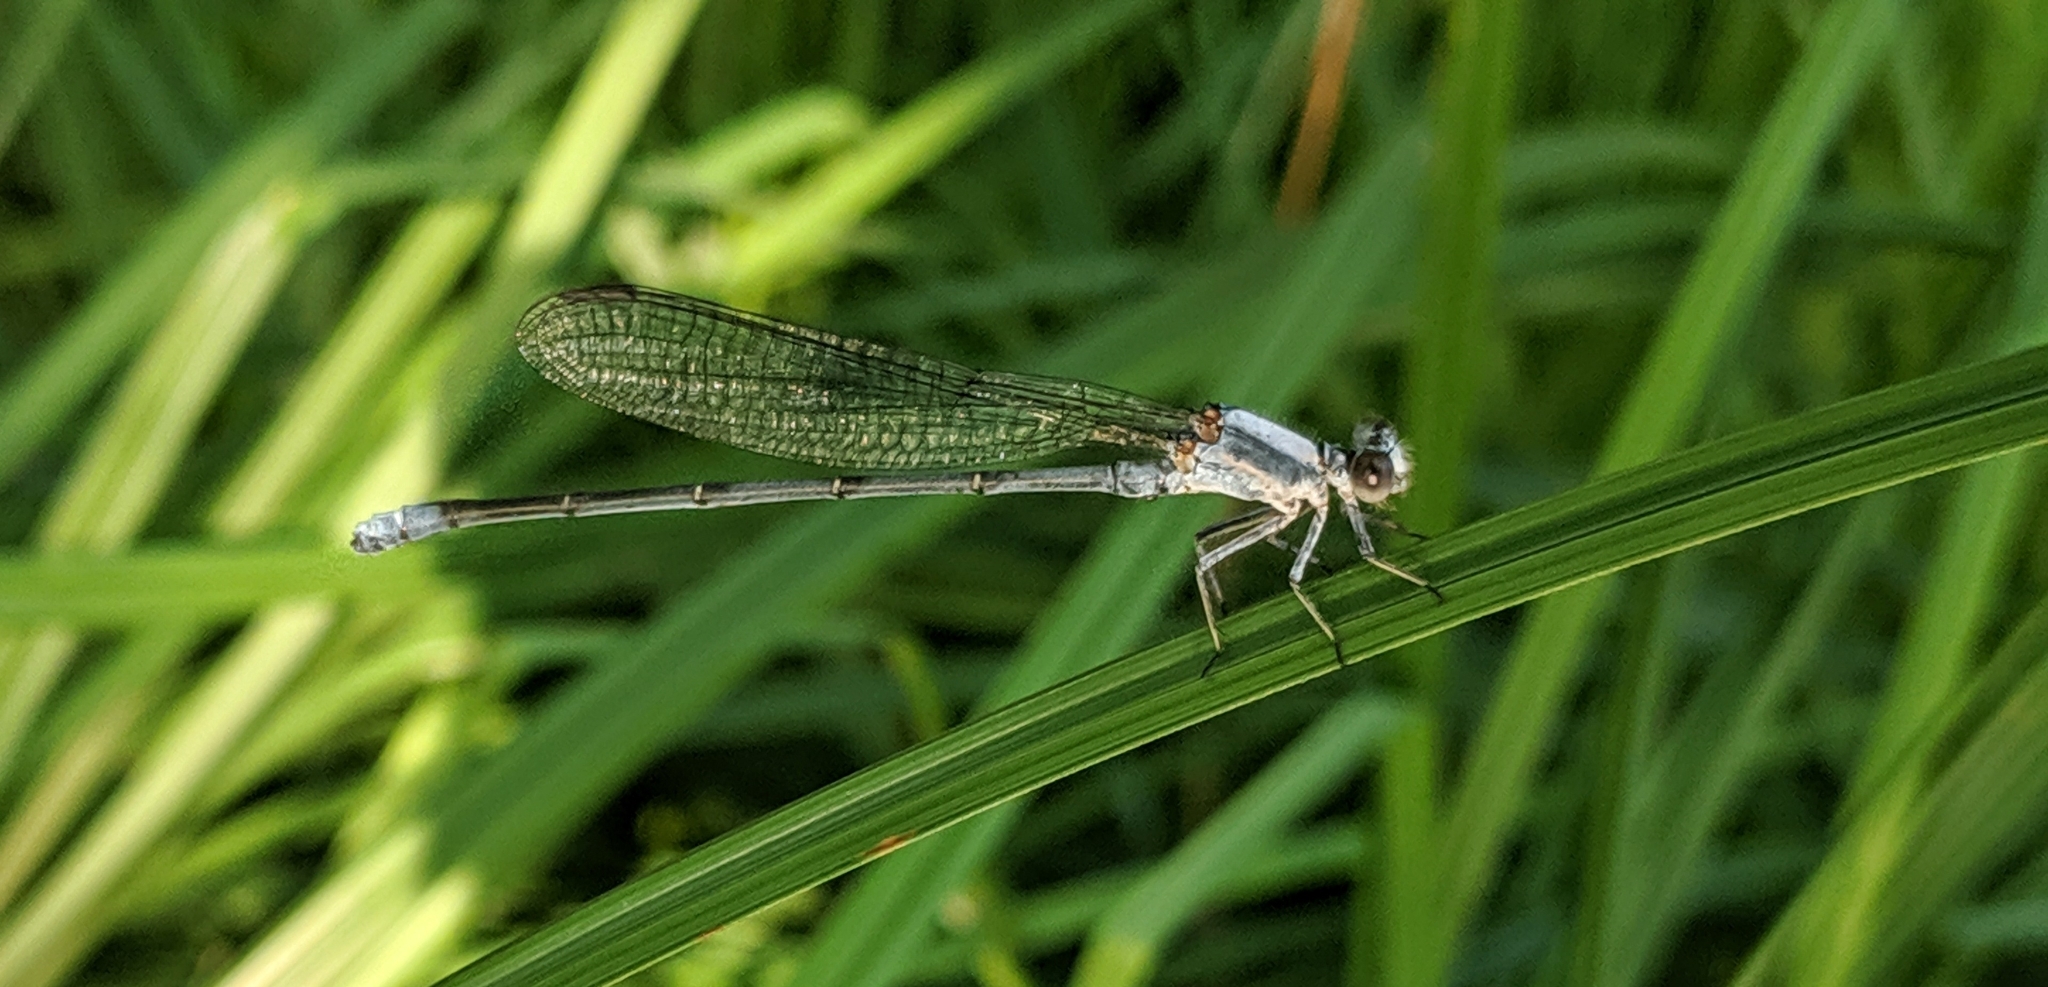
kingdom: Animalia
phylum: Arthropoda
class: Insecta
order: Odonata
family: Coenagrionidae
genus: Argia
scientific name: Argia moesta
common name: Powdered dancer
